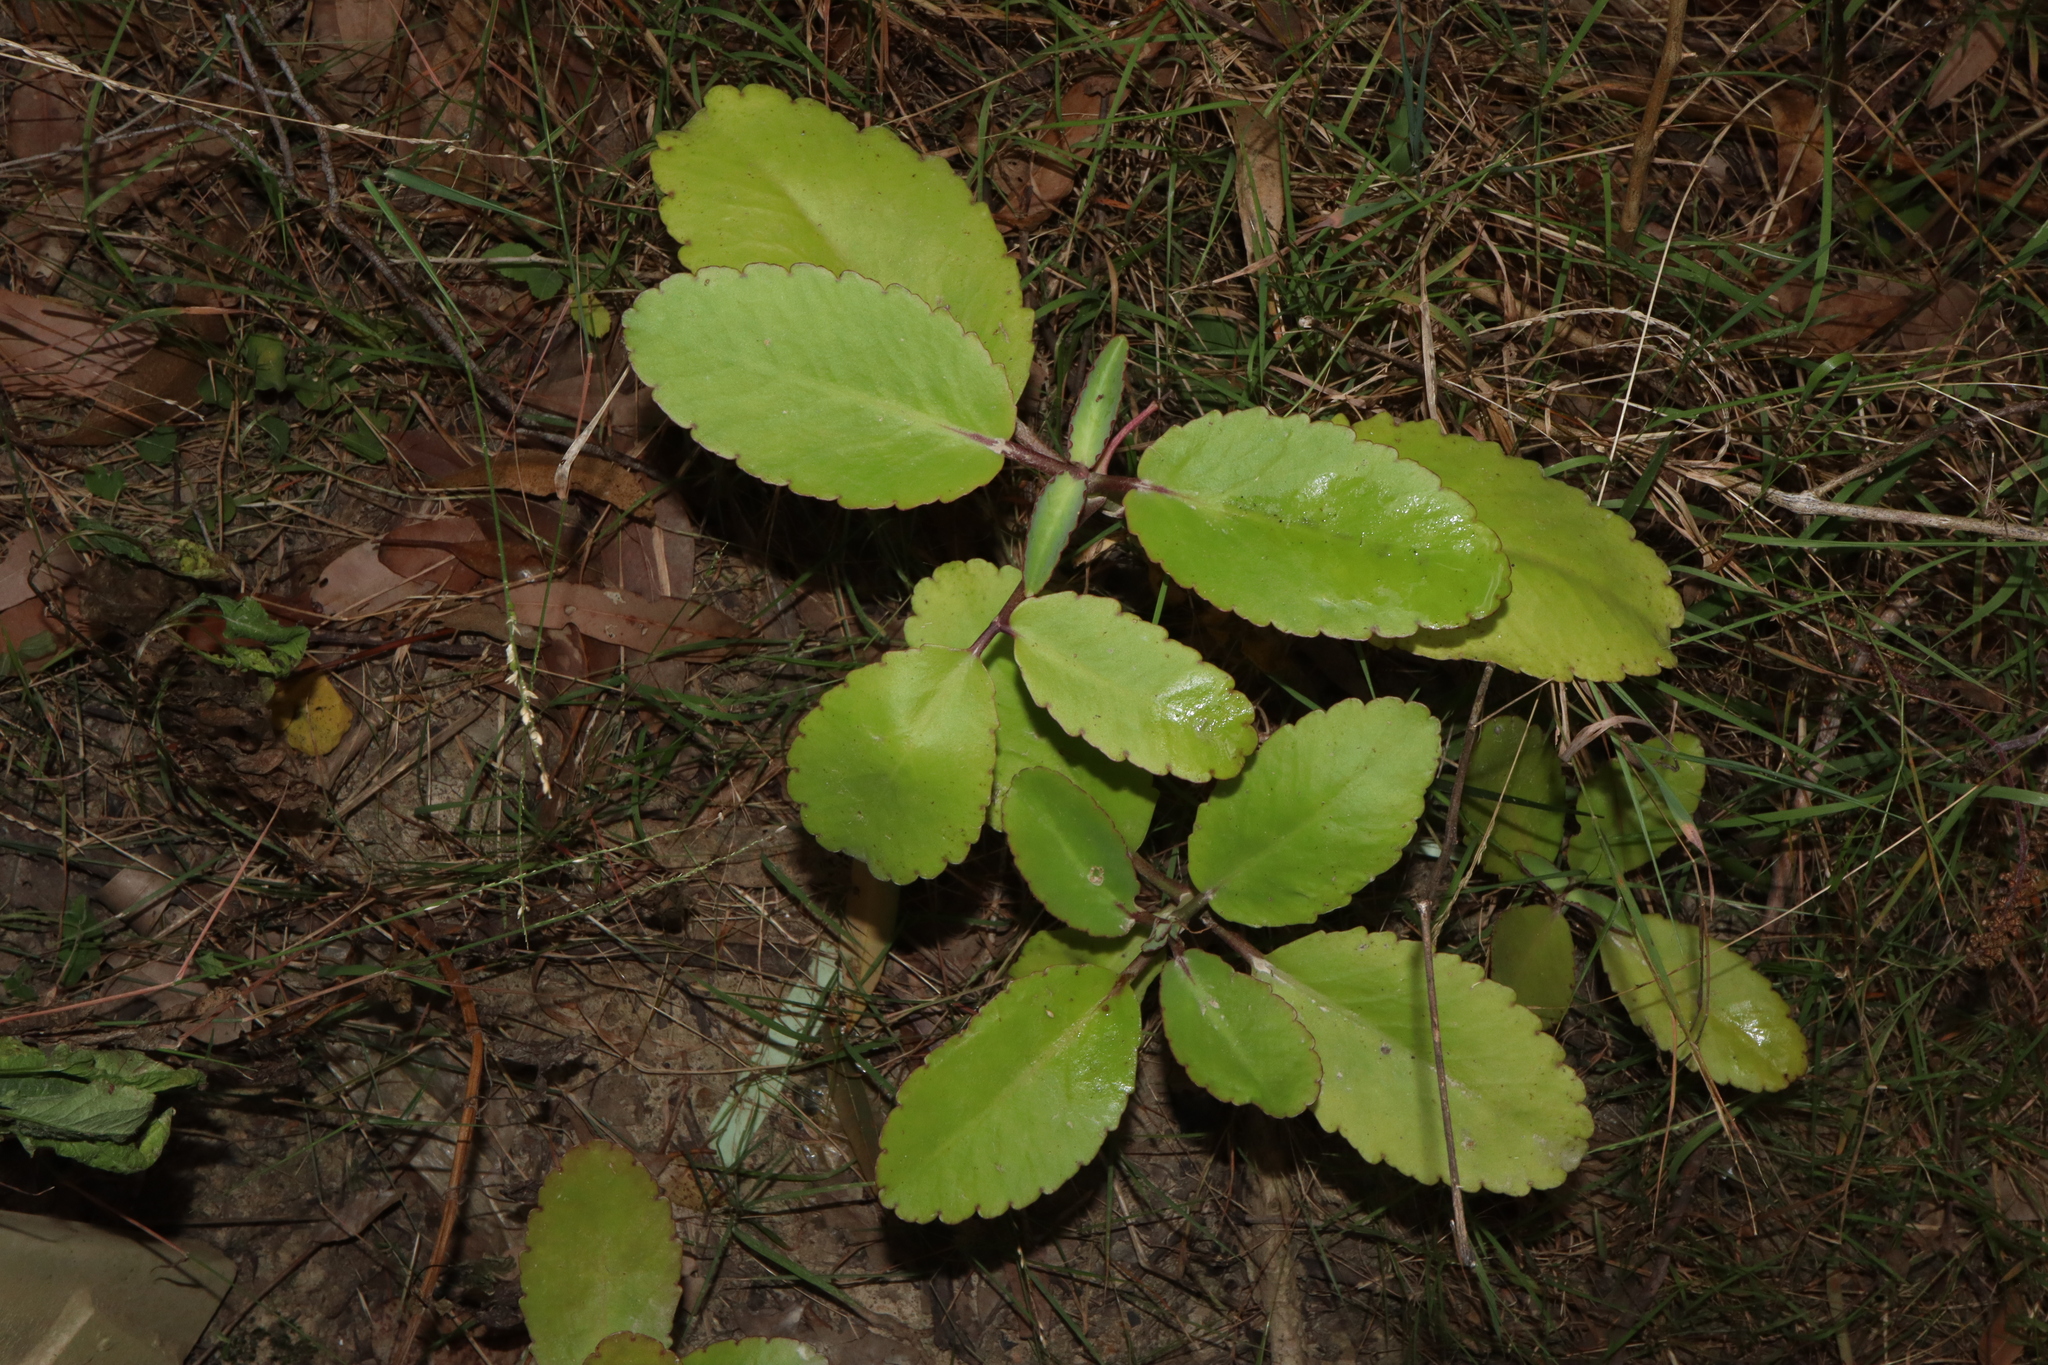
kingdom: Plantae
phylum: Tracheophyta
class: Magnoliopsida
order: Saxifragales
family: Crassulaceae
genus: Kalanchoe
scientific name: Kalanchoe pinnata
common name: Cathedral bells
